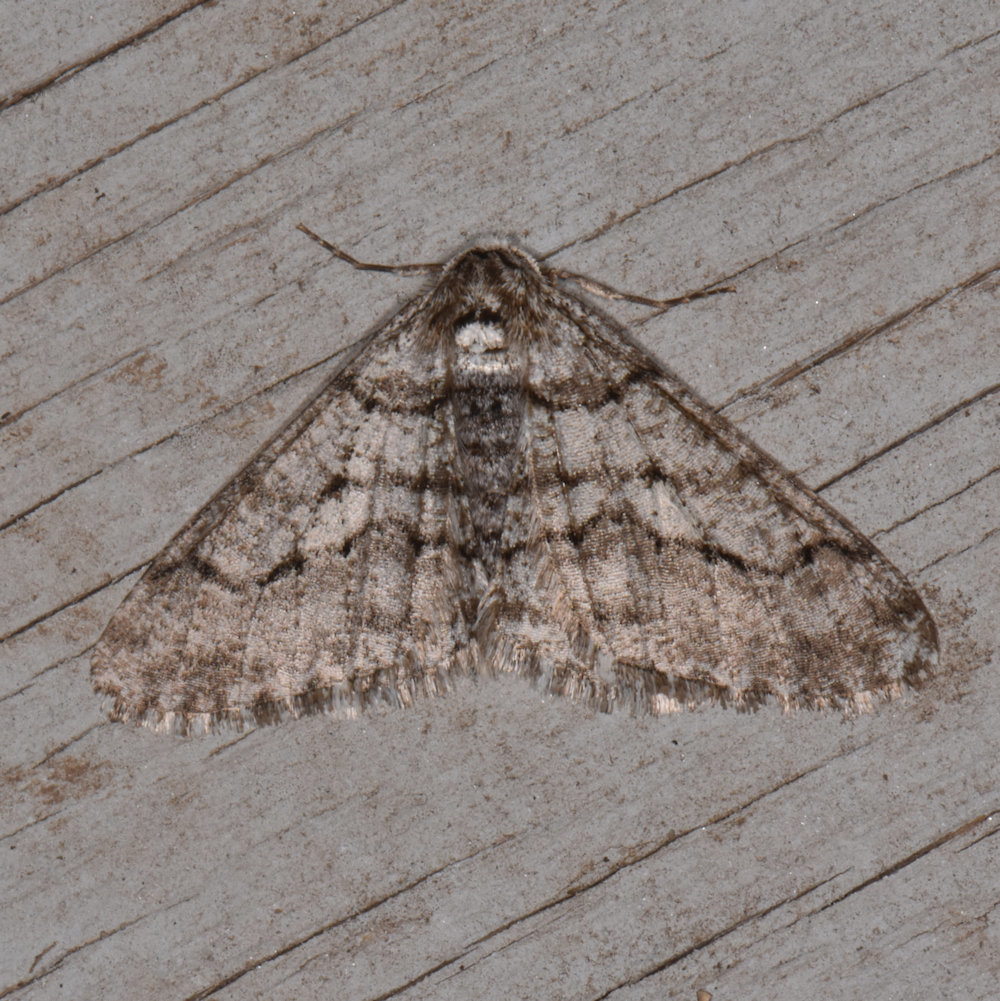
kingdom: Animalia
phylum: Arthropoda
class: Insecta
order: Lepidoptera
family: Geometridae
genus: Phigalia
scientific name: Phigalia titea
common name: Spiny looper
